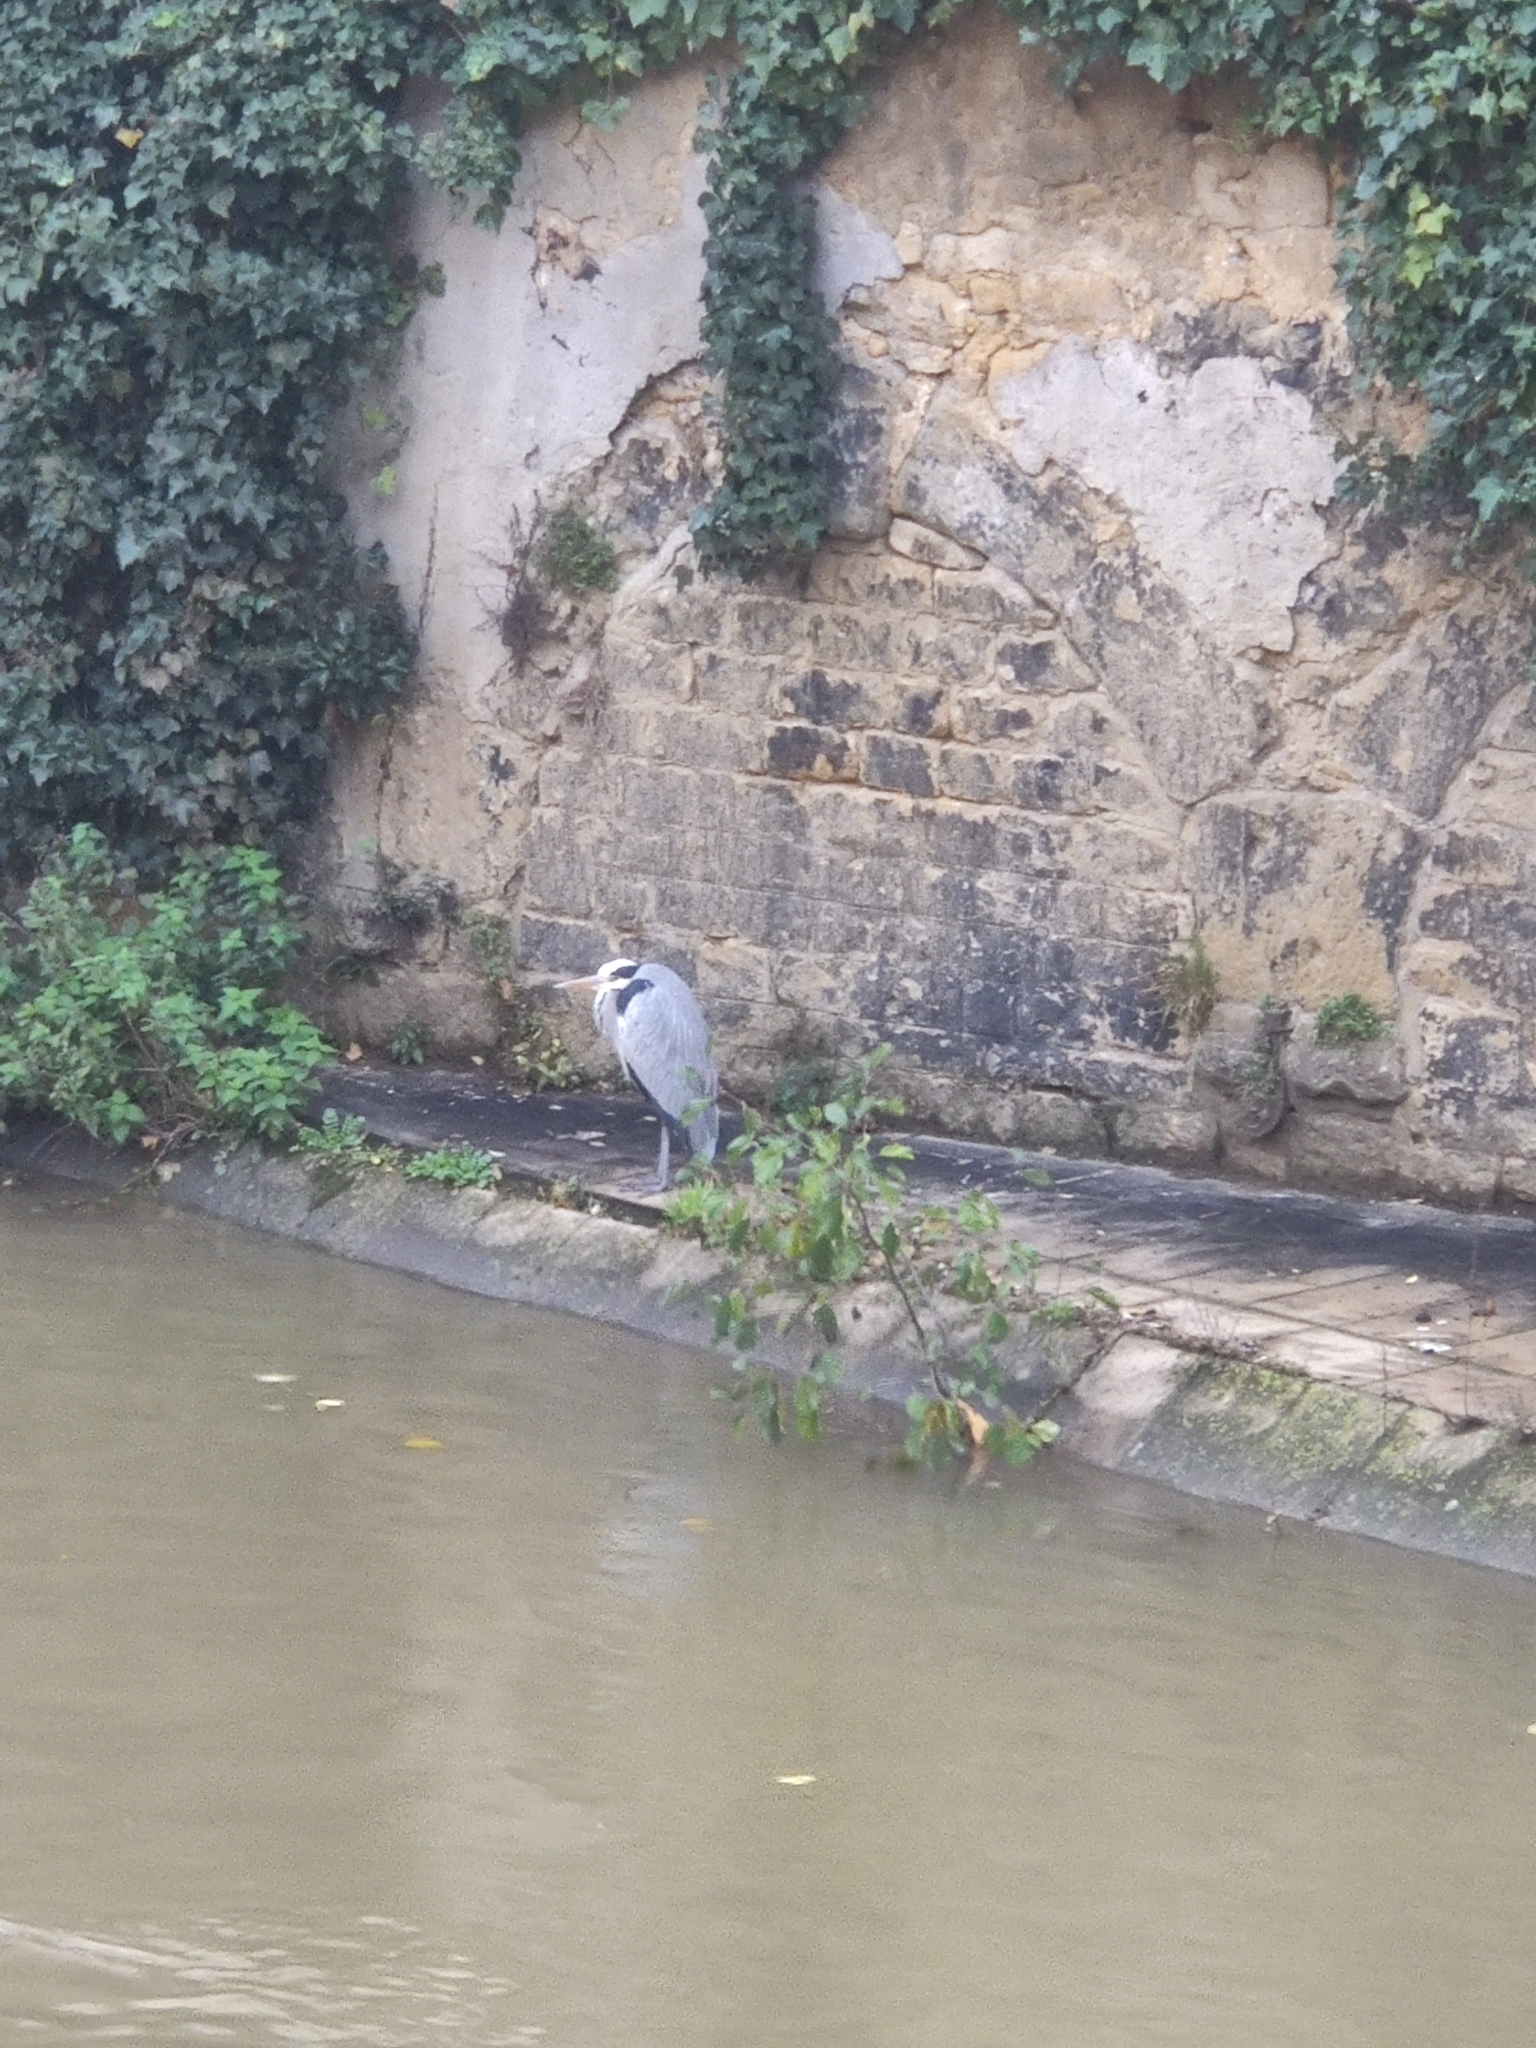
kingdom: Animalia
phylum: Chordata
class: Aves
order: Pelecaniformes
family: Ardeidae
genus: Ardea
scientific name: Ardea cinerea
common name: Grey heron
